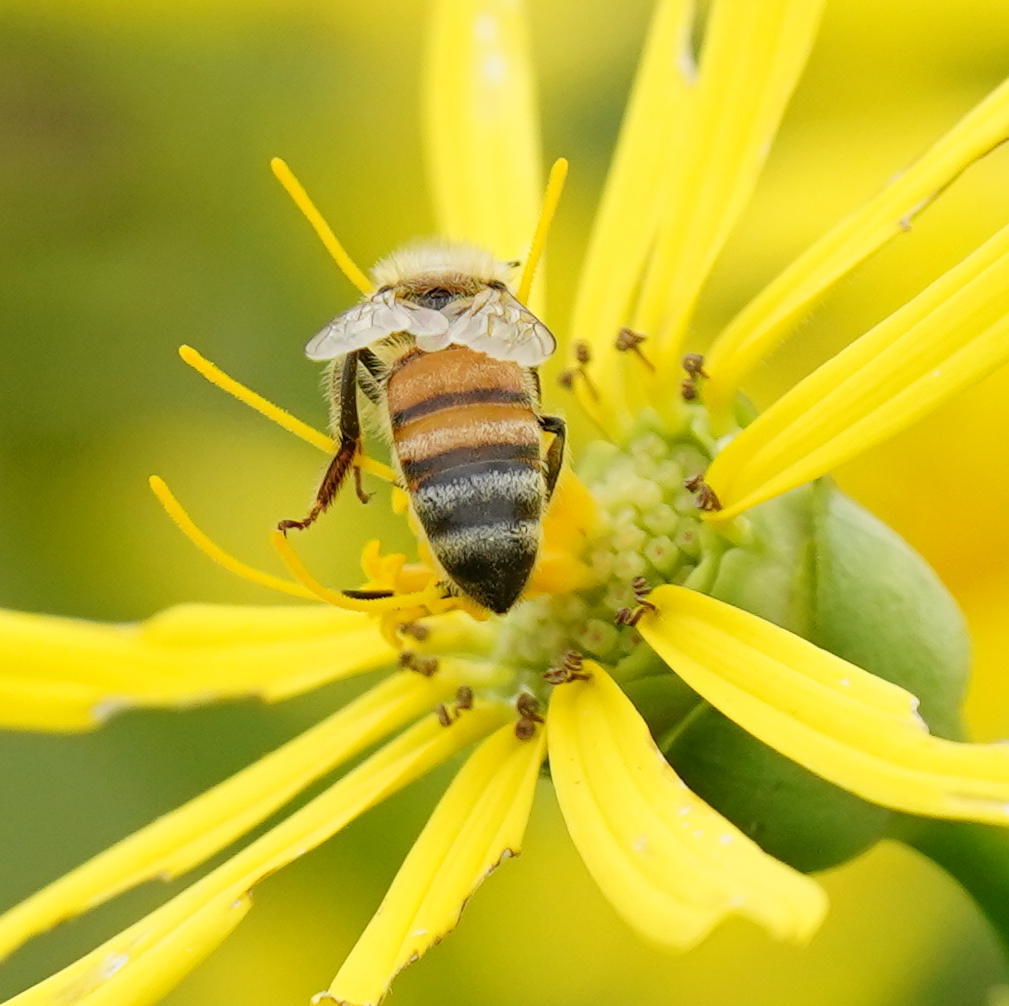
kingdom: Animalia
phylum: Arthropoda
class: Insecta
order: Hymenoptera
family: Apidae
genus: Apis
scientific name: Apis mellifera
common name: Honey bee
